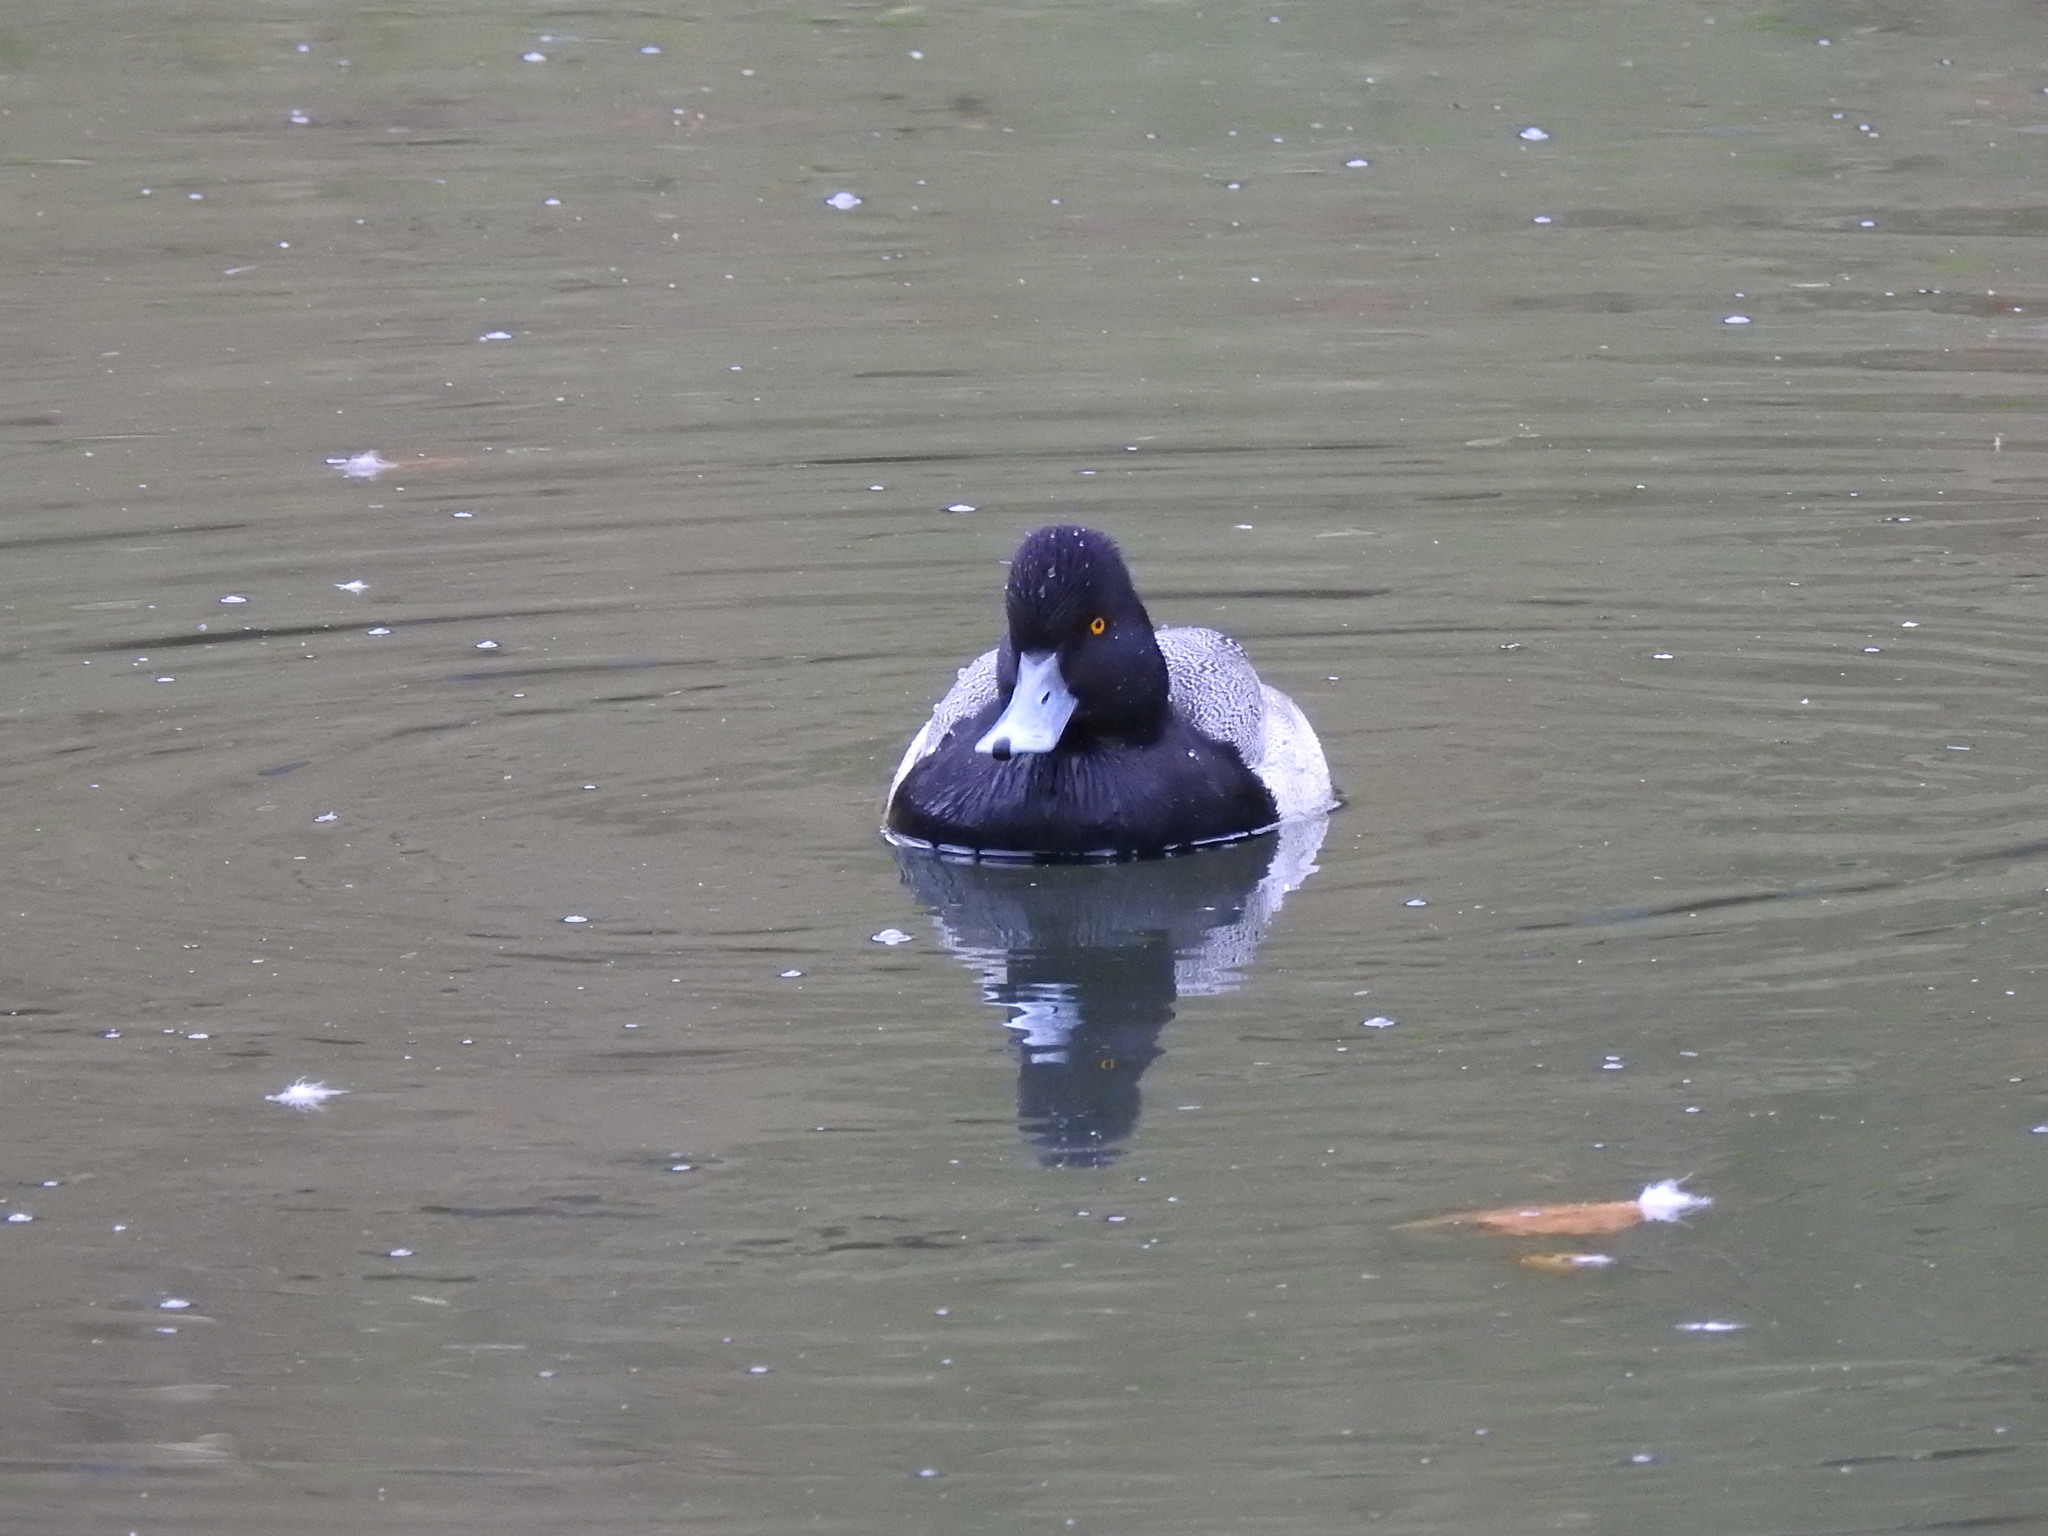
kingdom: Animalia
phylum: Chordata
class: Aves
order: Anseriformes
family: Anatidae
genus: Aythya
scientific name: Aythya affinis
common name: Lesser scaup
